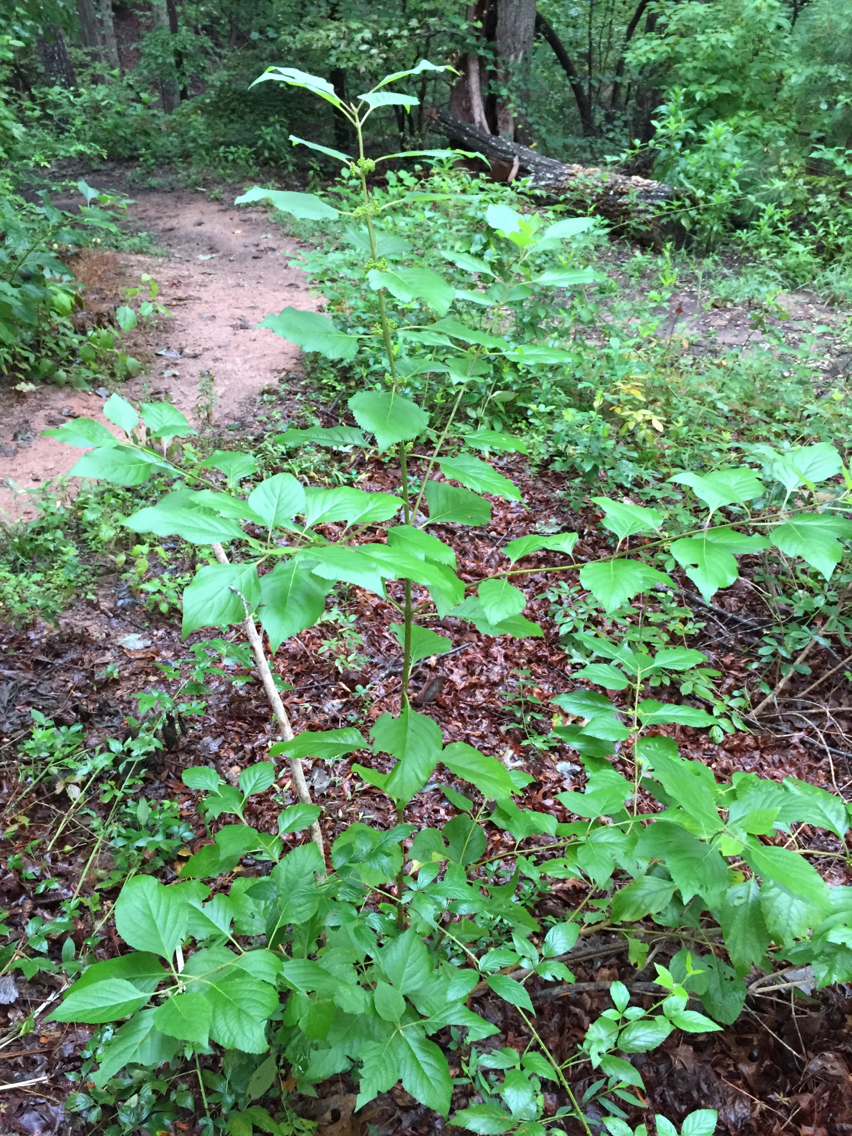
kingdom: Plantae
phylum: Tracheophyta
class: Magnoliopsida
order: Lamiales
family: Lamiaceae
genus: Callicarpa
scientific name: Callicarpa americana
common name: American beautyberry
